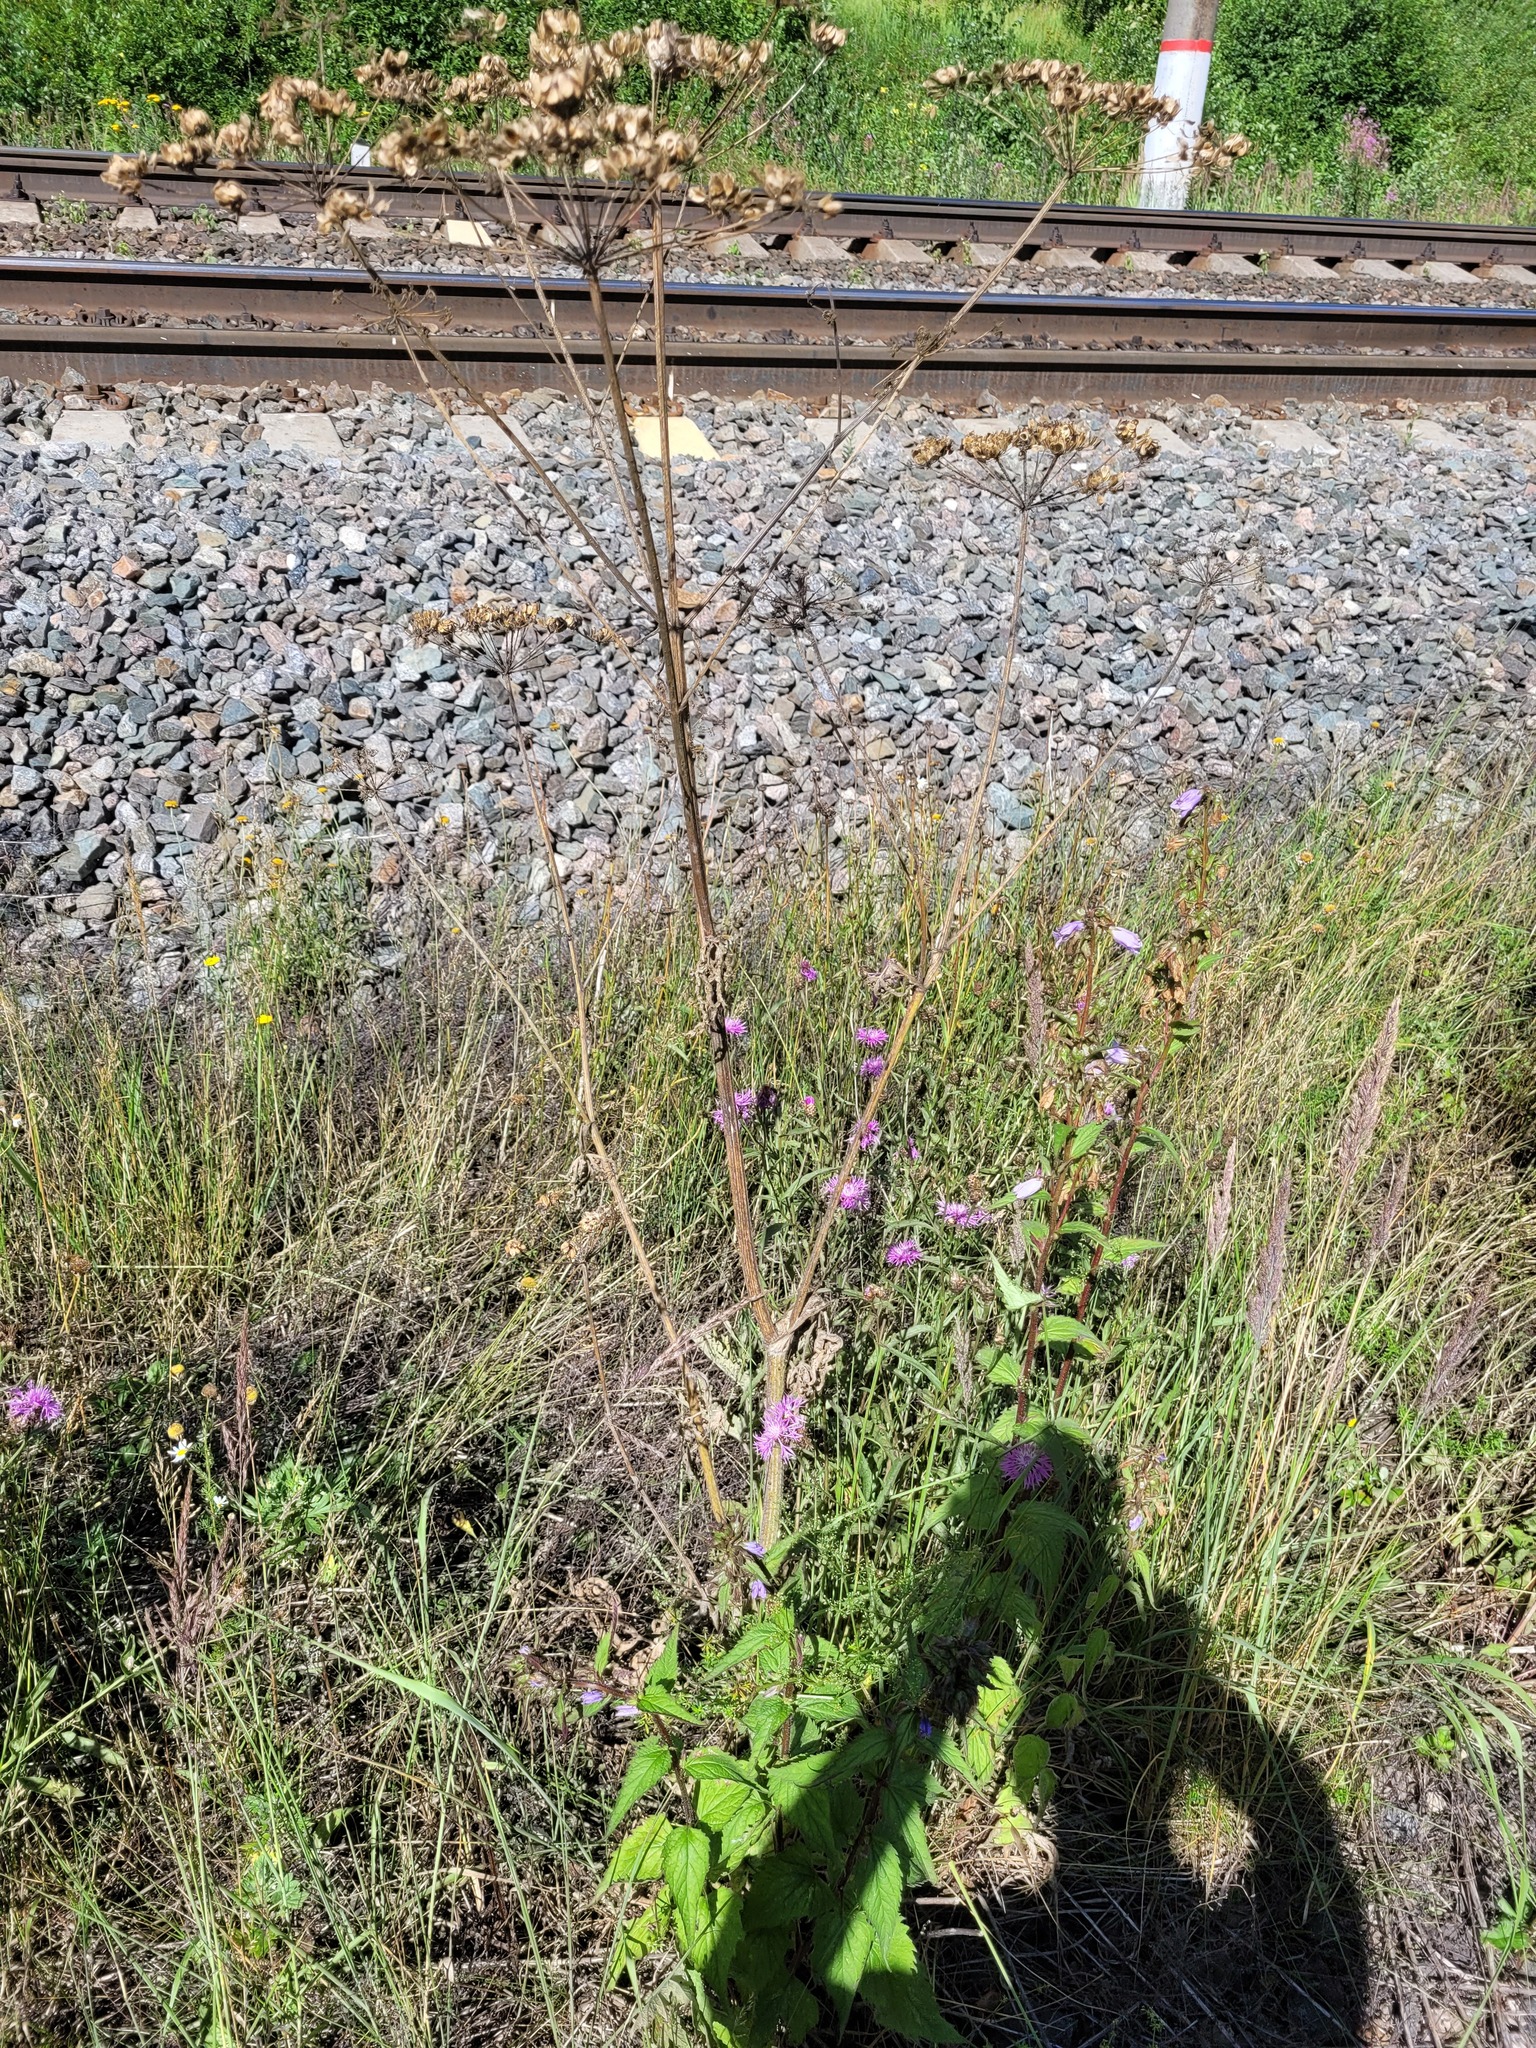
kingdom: Plantae
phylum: Tracheophyta
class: Magnoliopsida
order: Apiales
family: Apiaceae
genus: Heracleum
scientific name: Heracleum sphondylium
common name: Hogweed
